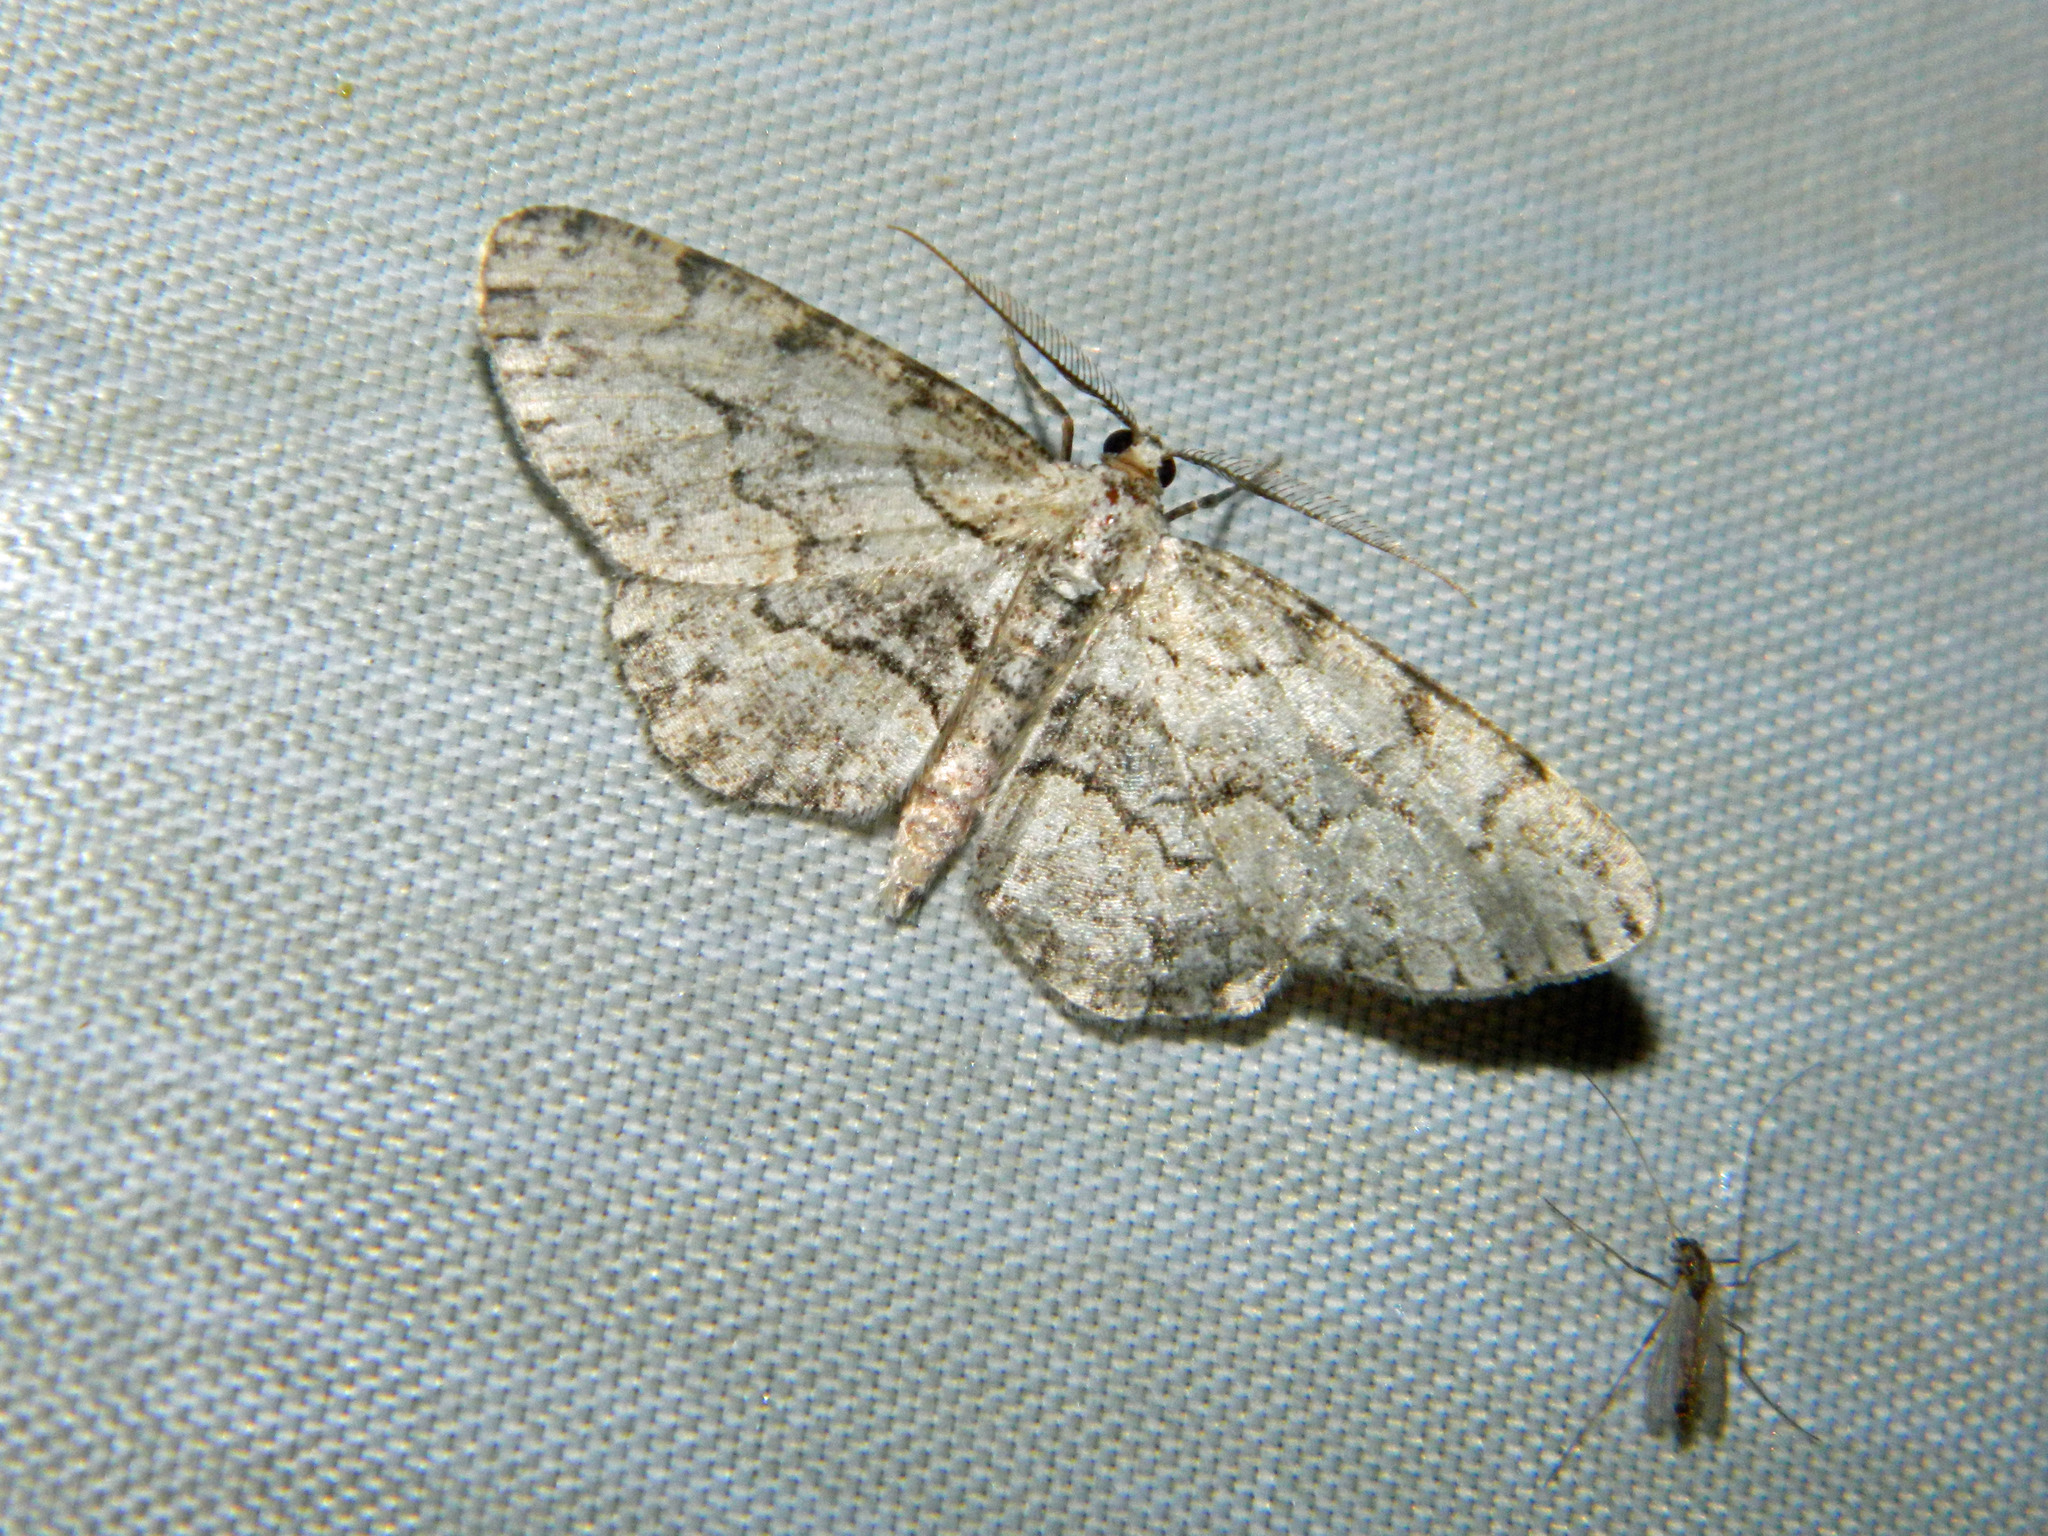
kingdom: Animalia
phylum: Arthropoda
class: Insecta
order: Lepidoptera
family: Geometridae
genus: Iridopsis
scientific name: Iridopsis ephyraria
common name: Pale-winged gray
